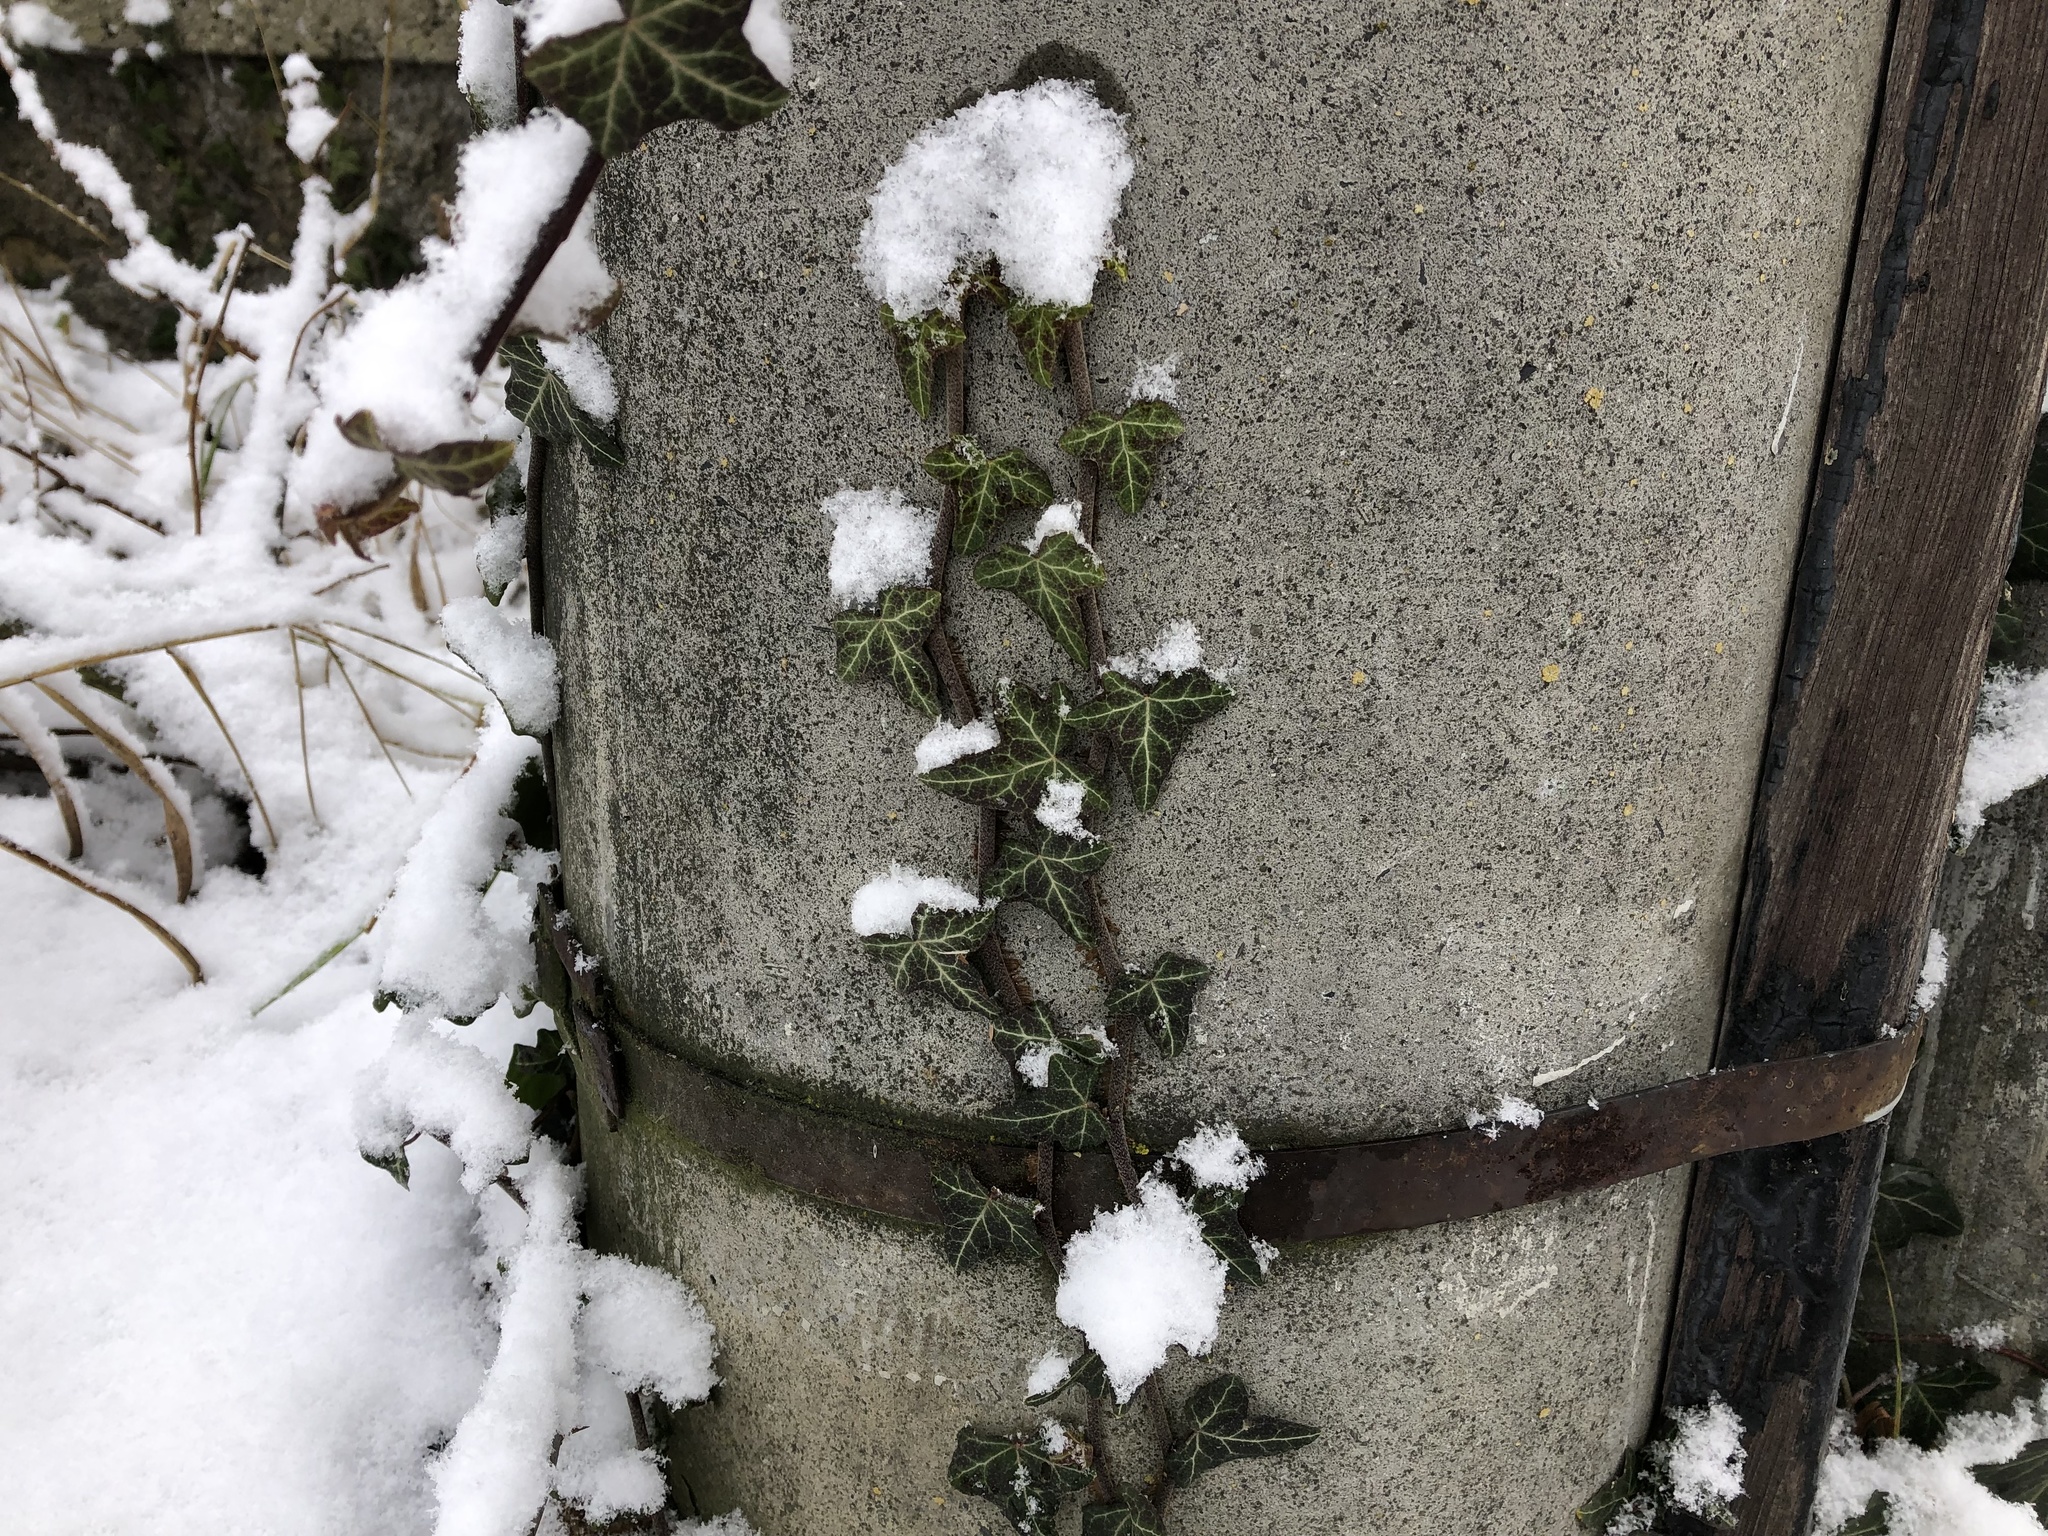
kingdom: Plantae
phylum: Tracheophyta
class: Magnoliopsida
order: Apiales
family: Araliaceae
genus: Hedera
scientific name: Hedera helix
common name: Ivy
